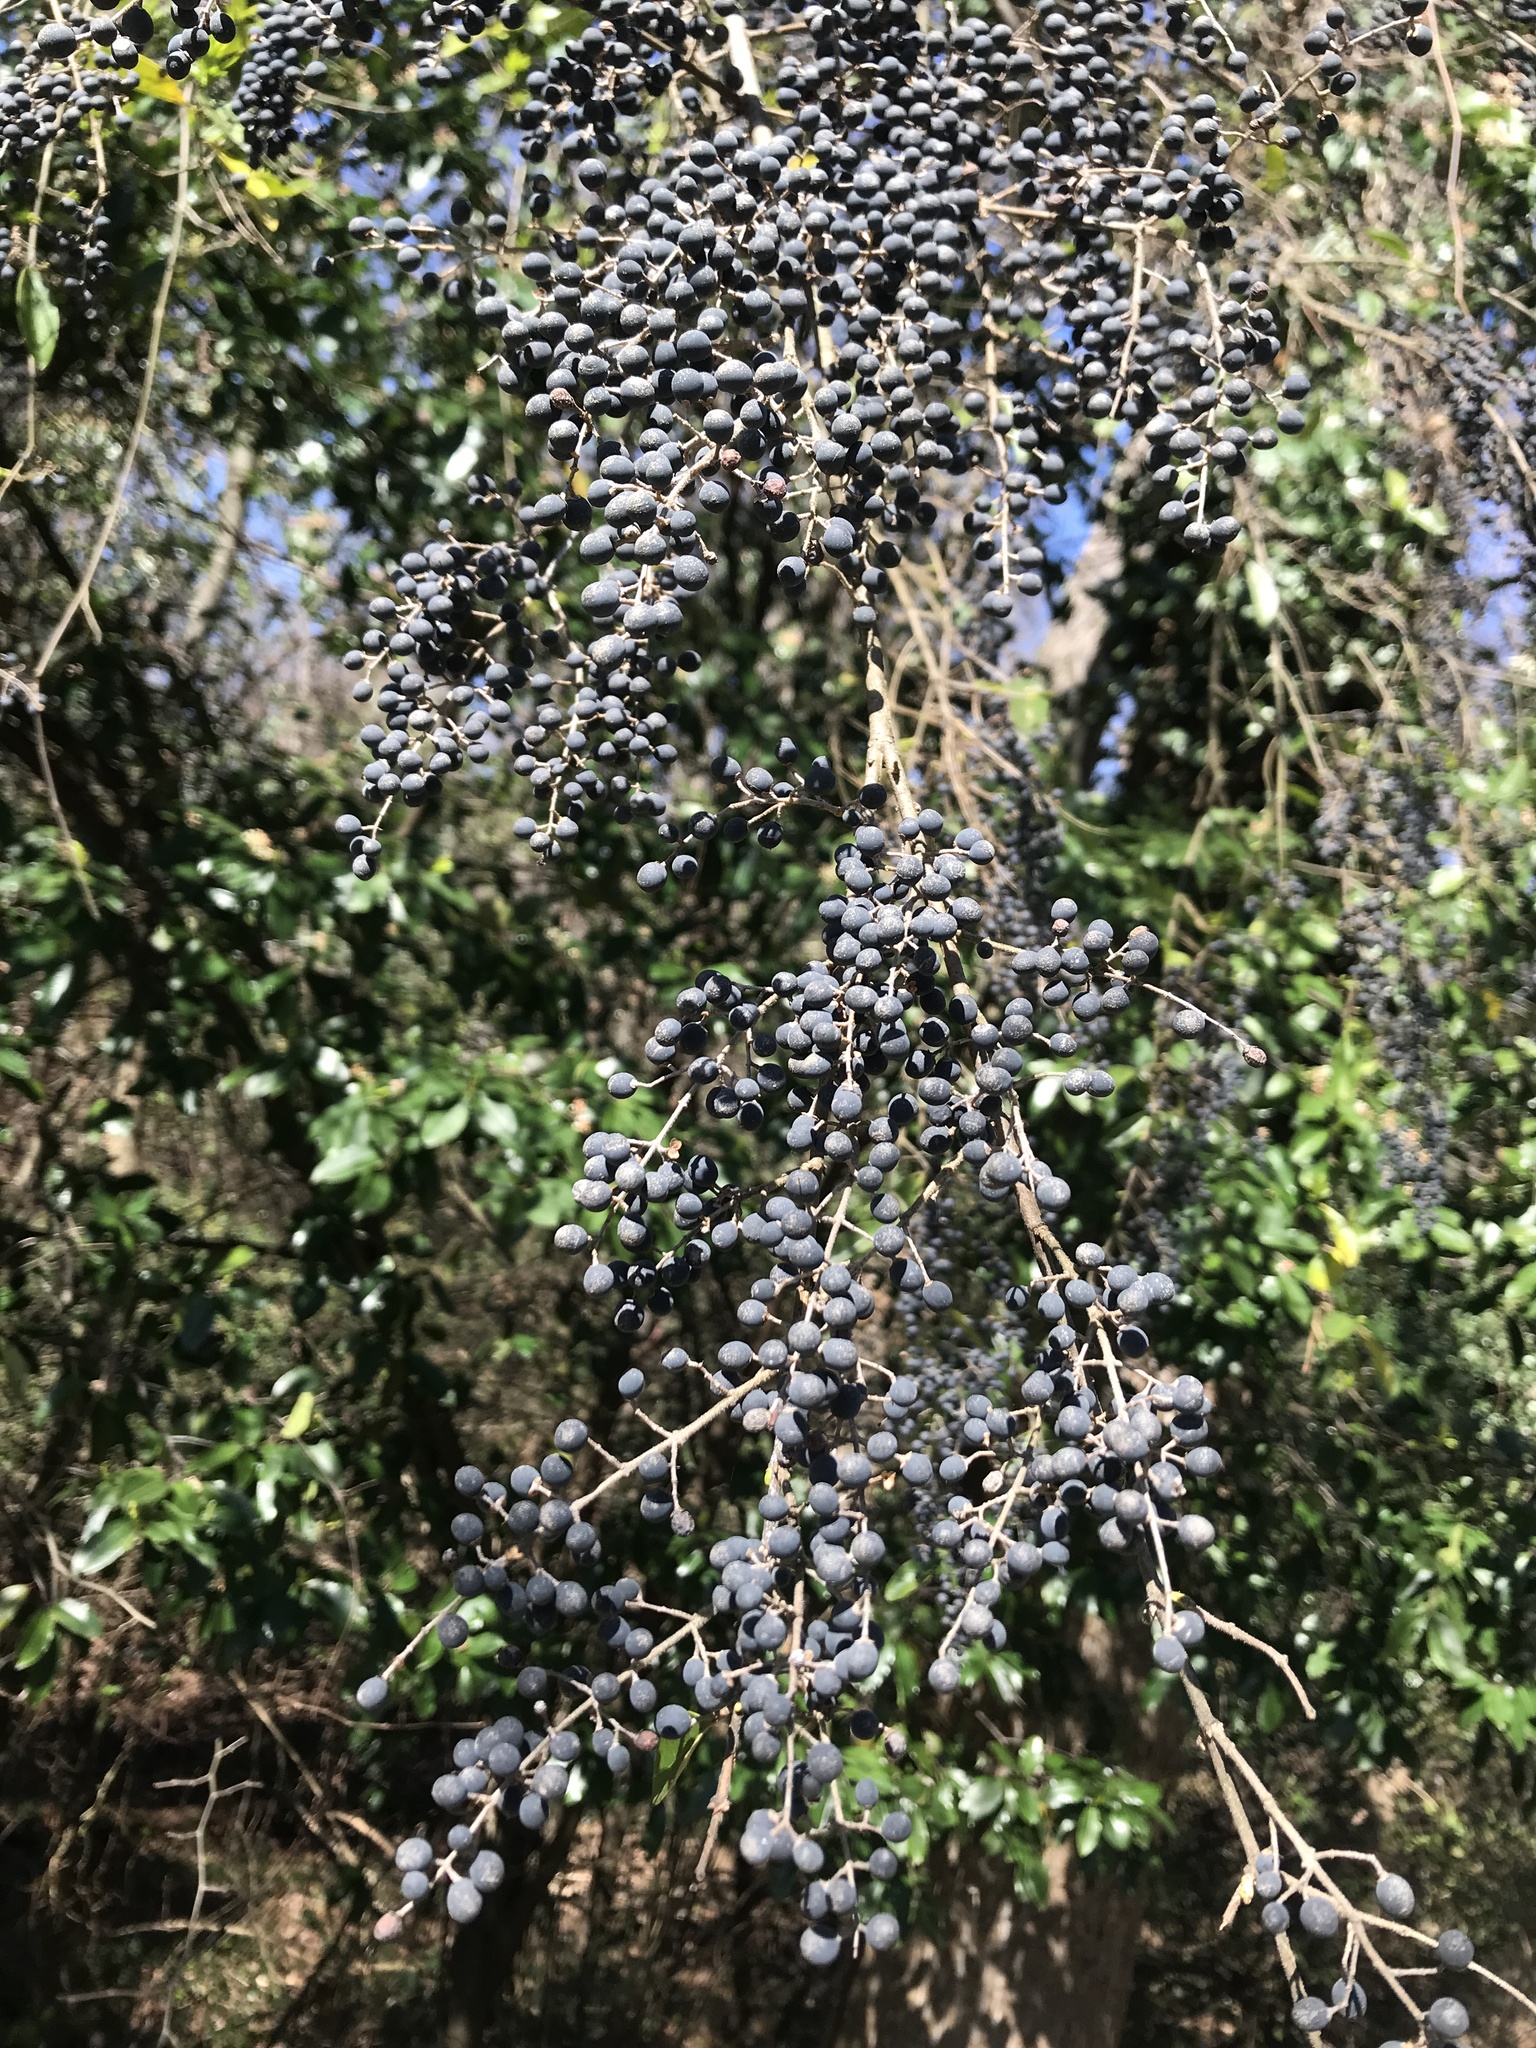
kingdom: Plantae
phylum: Tracheophyta
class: Magnoliopsida
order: Lamiales
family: Oleaceae
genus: Ligustrum
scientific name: Ligustrum sinense
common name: Chinese privet
